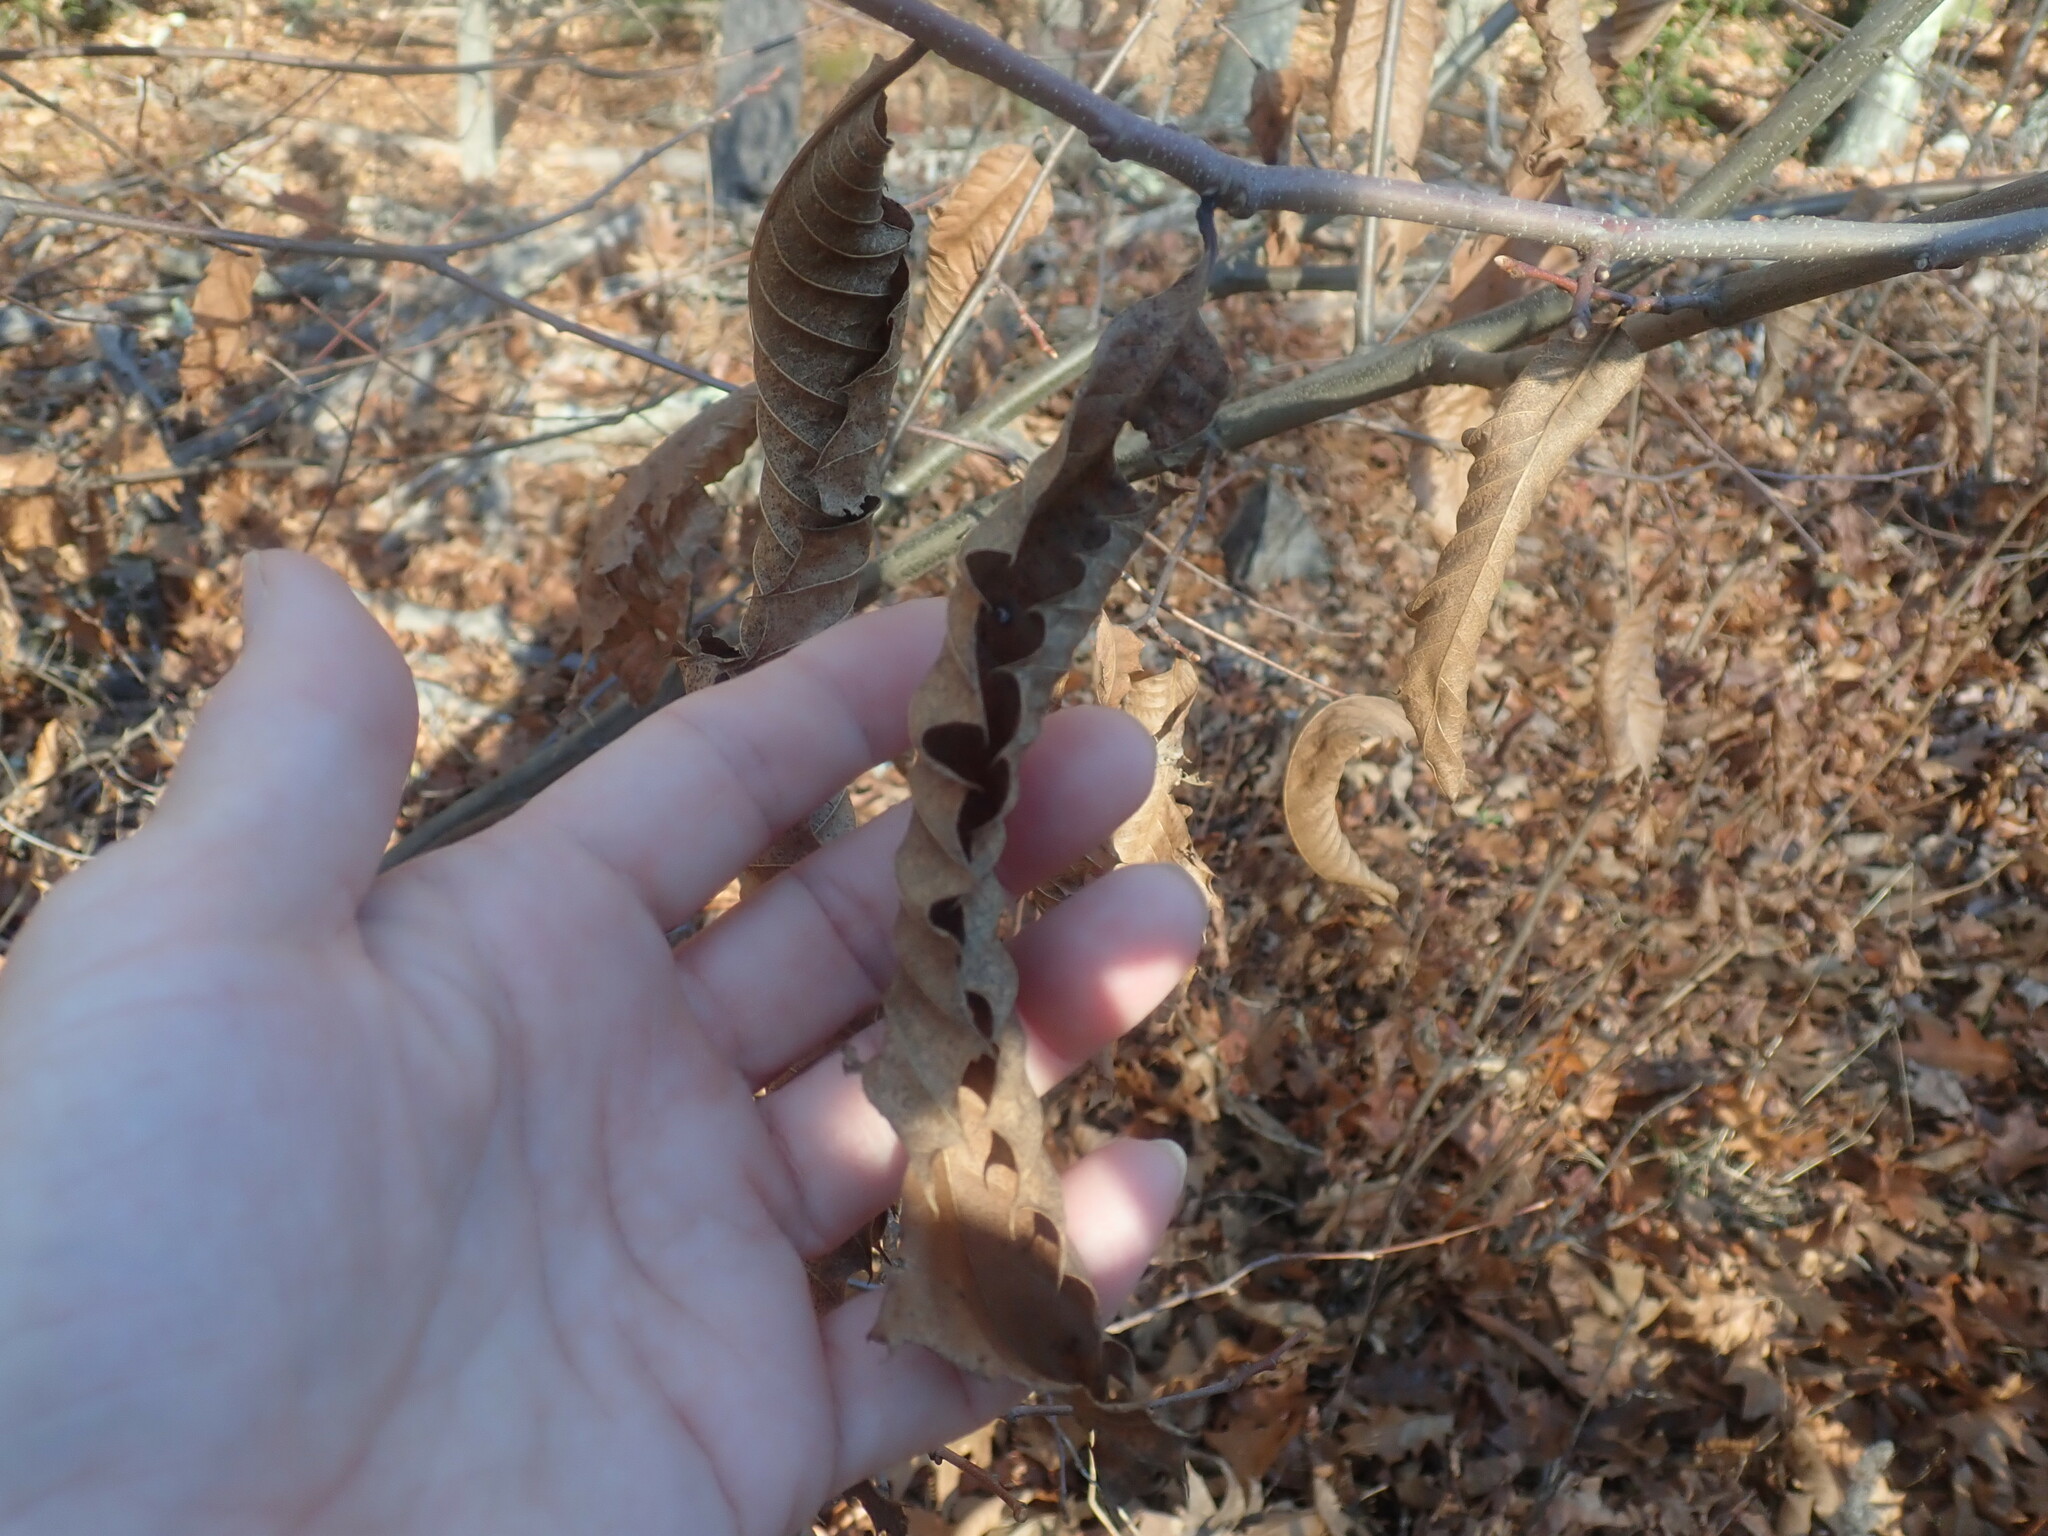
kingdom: Plantae
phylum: Tracheophyta
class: Magnoliopsida
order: Fagales
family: Fagaceae
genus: Castanea
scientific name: Castanea dentata
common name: American chestnut
